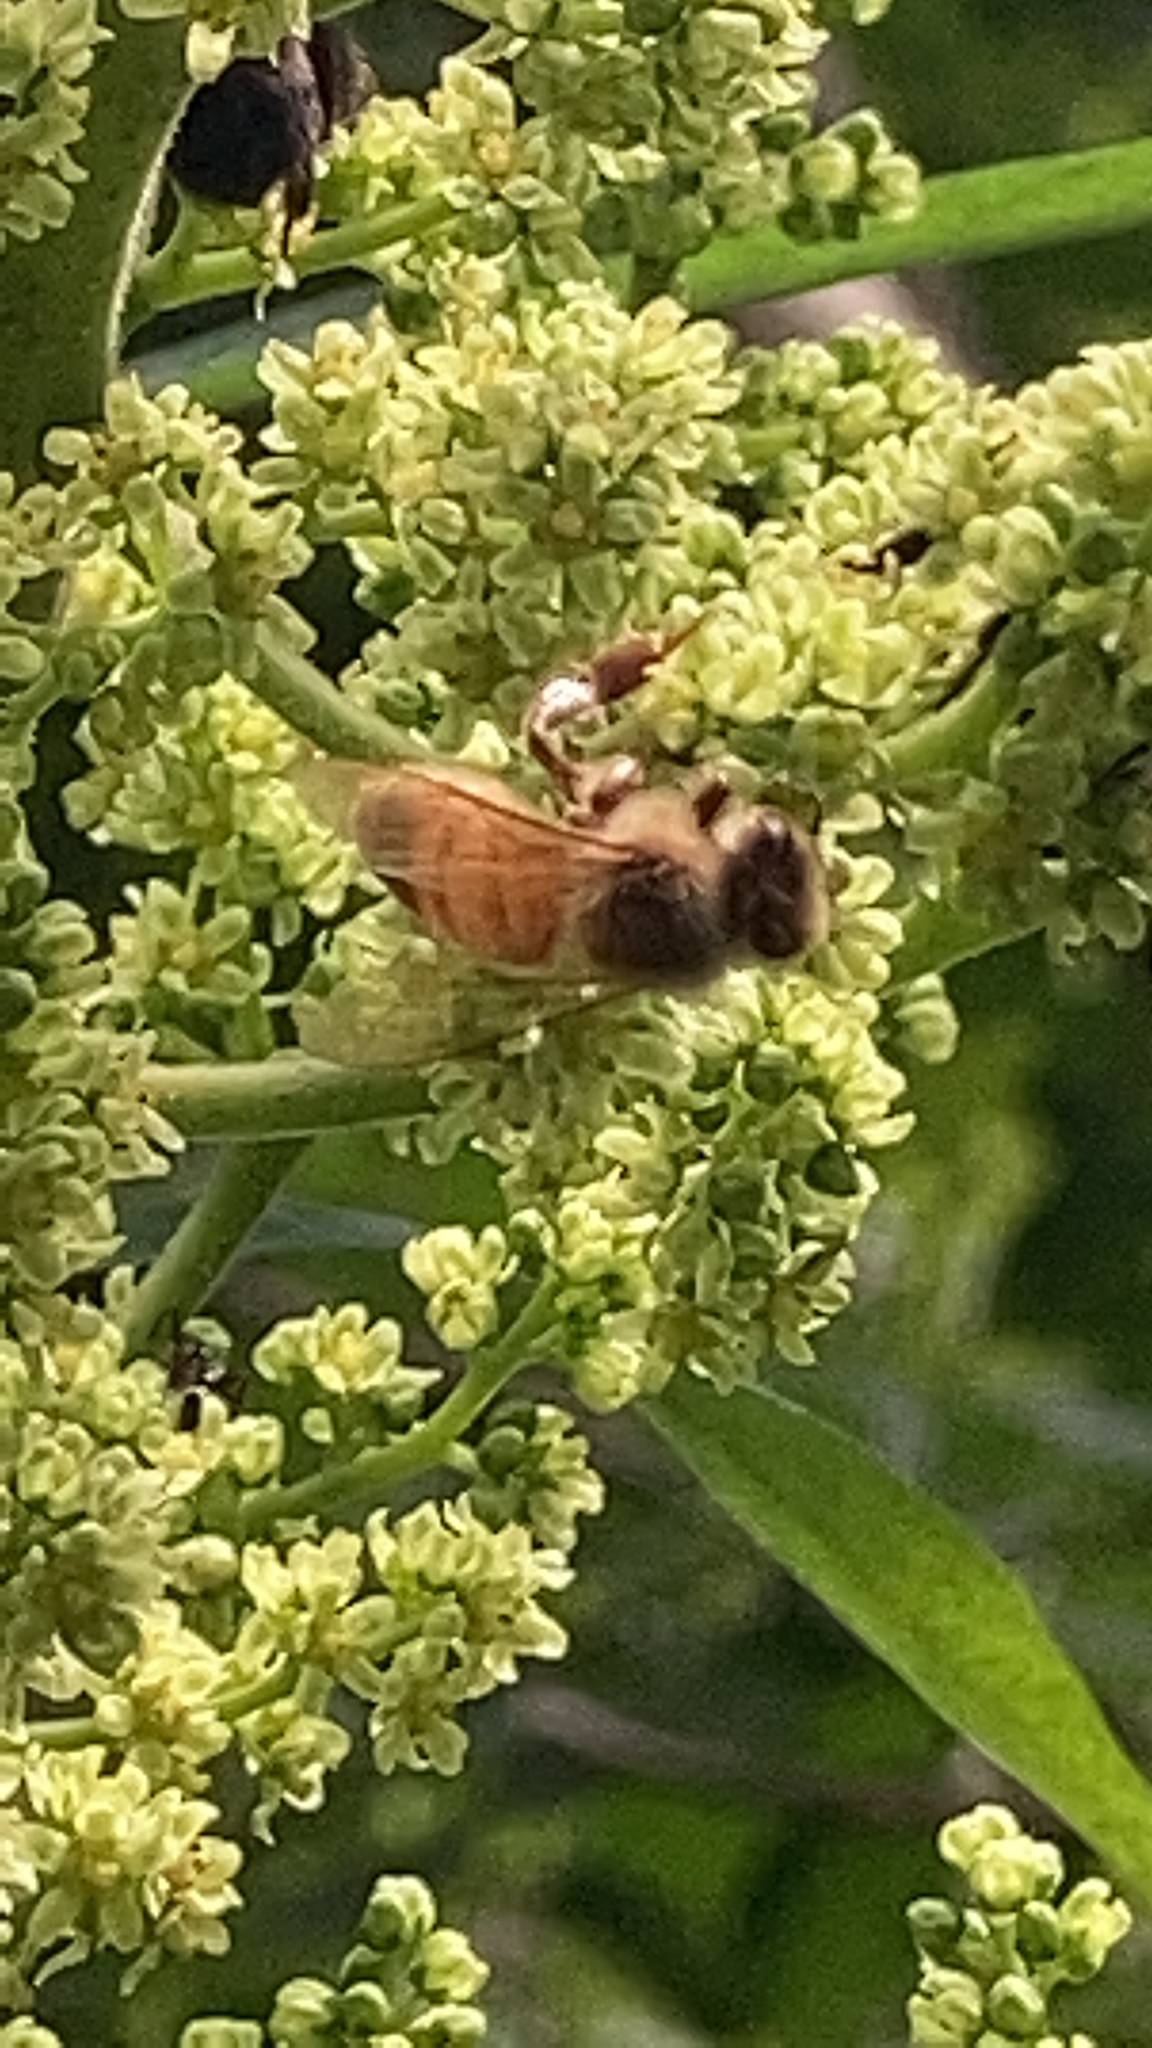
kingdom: Animalia
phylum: Arthropoda
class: Insecta
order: Hymenoptera
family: Apidae
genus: Apis
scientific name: Apis mellifera
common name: Honey bee
